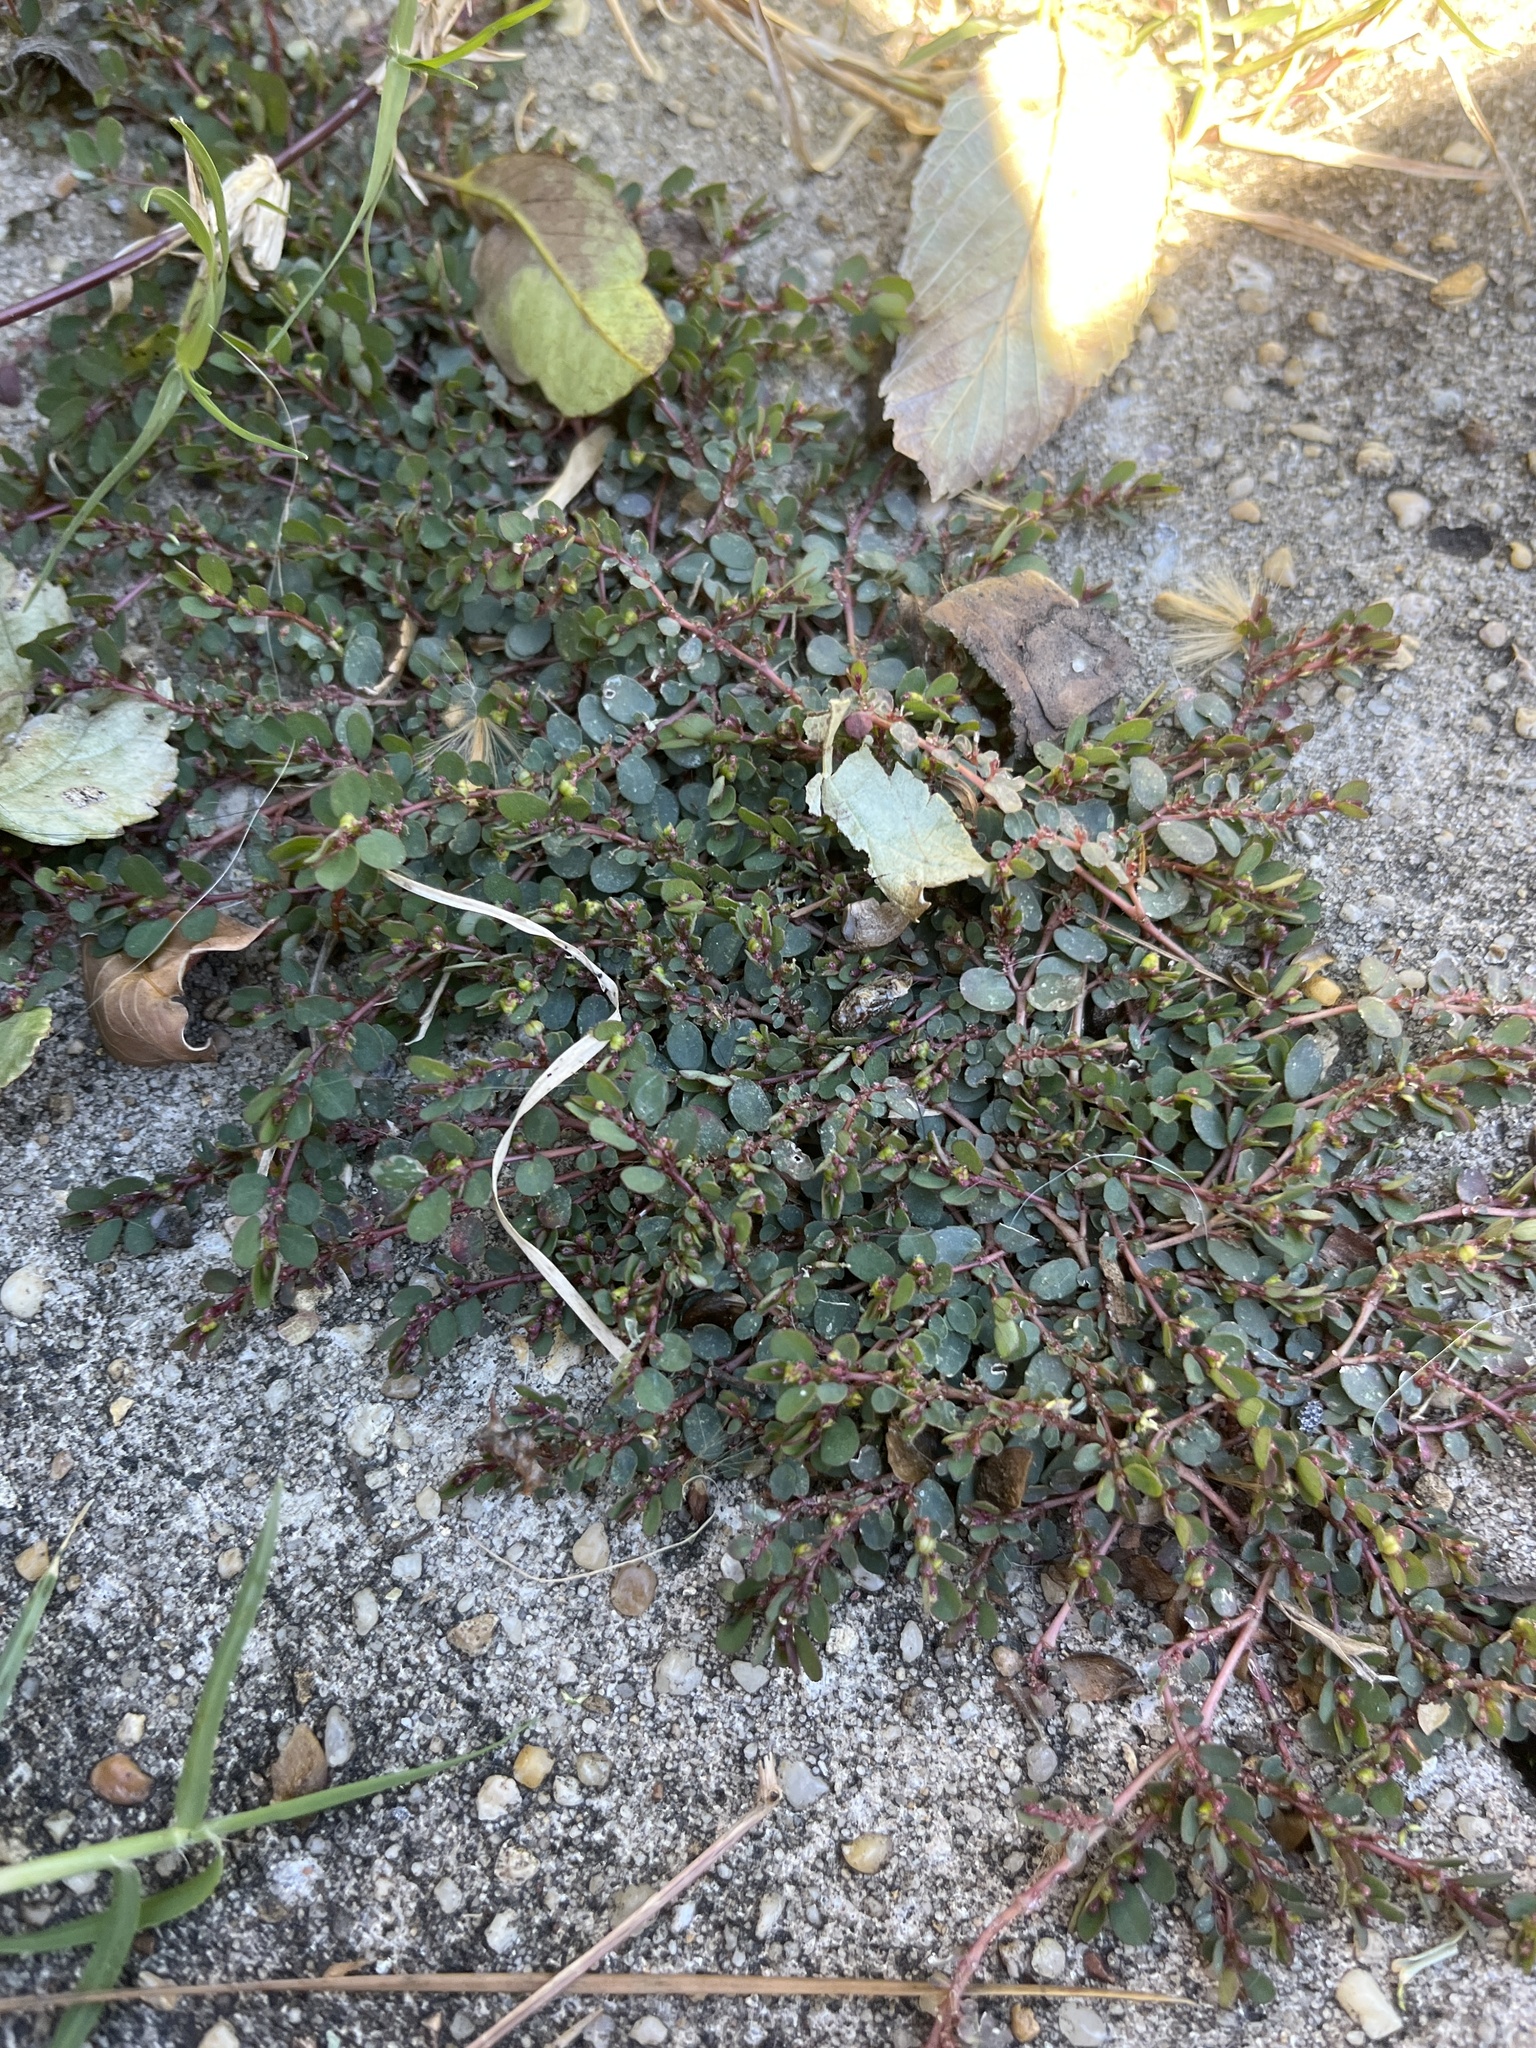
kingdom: Plantae
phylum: Tracheophyta
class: Magnoliopsida
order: Malpighiales
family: Euphorbiaceae
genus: Euphorbia
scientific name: Euphorbia prostrata
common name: Prostrate sandmat
